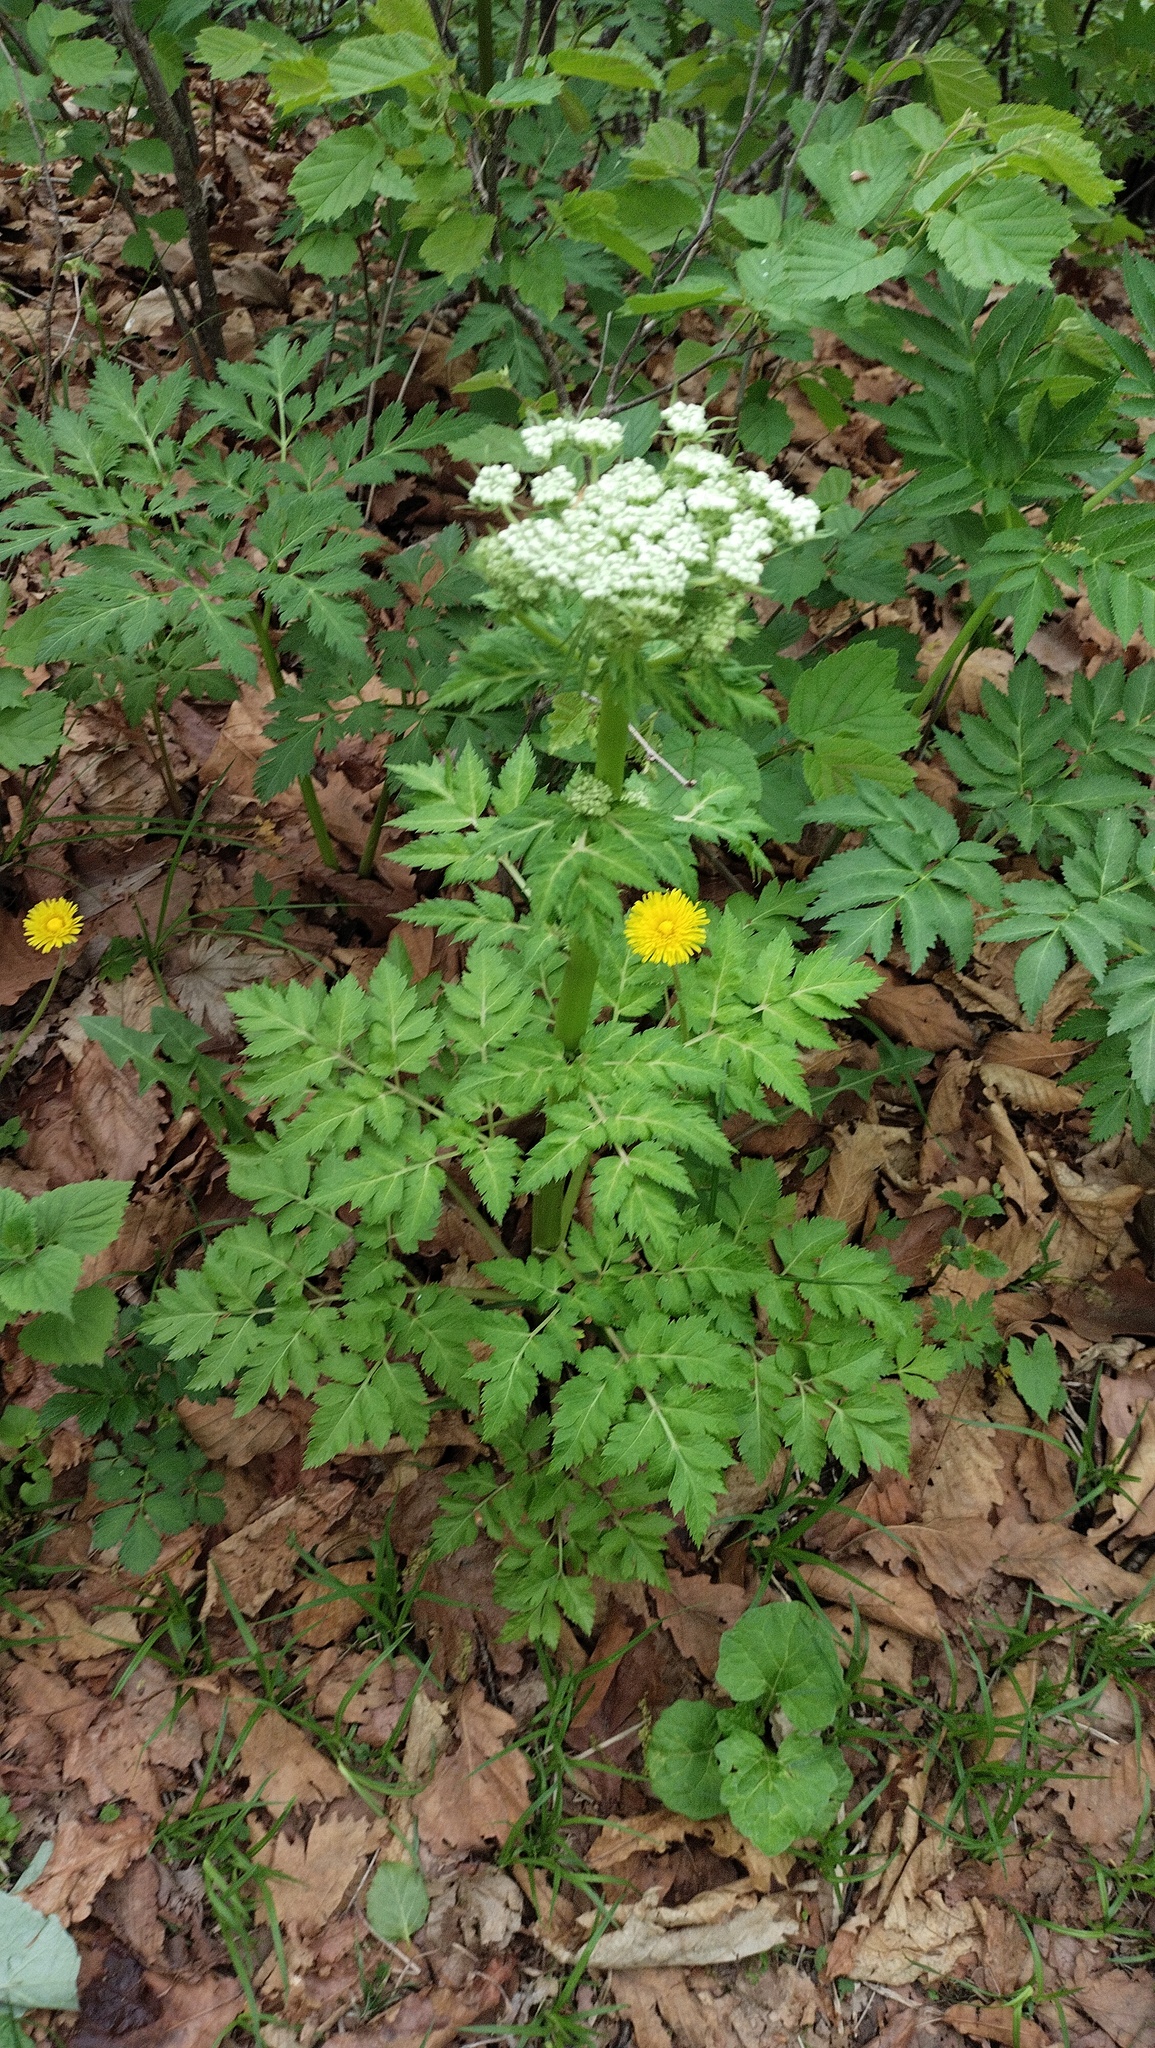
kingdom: Plantae
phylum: Tracheophyta
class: Magnoliopsida
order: Apiales
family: Apiaceae
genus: Pleurospermum
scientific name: Pleurospermum uralense
